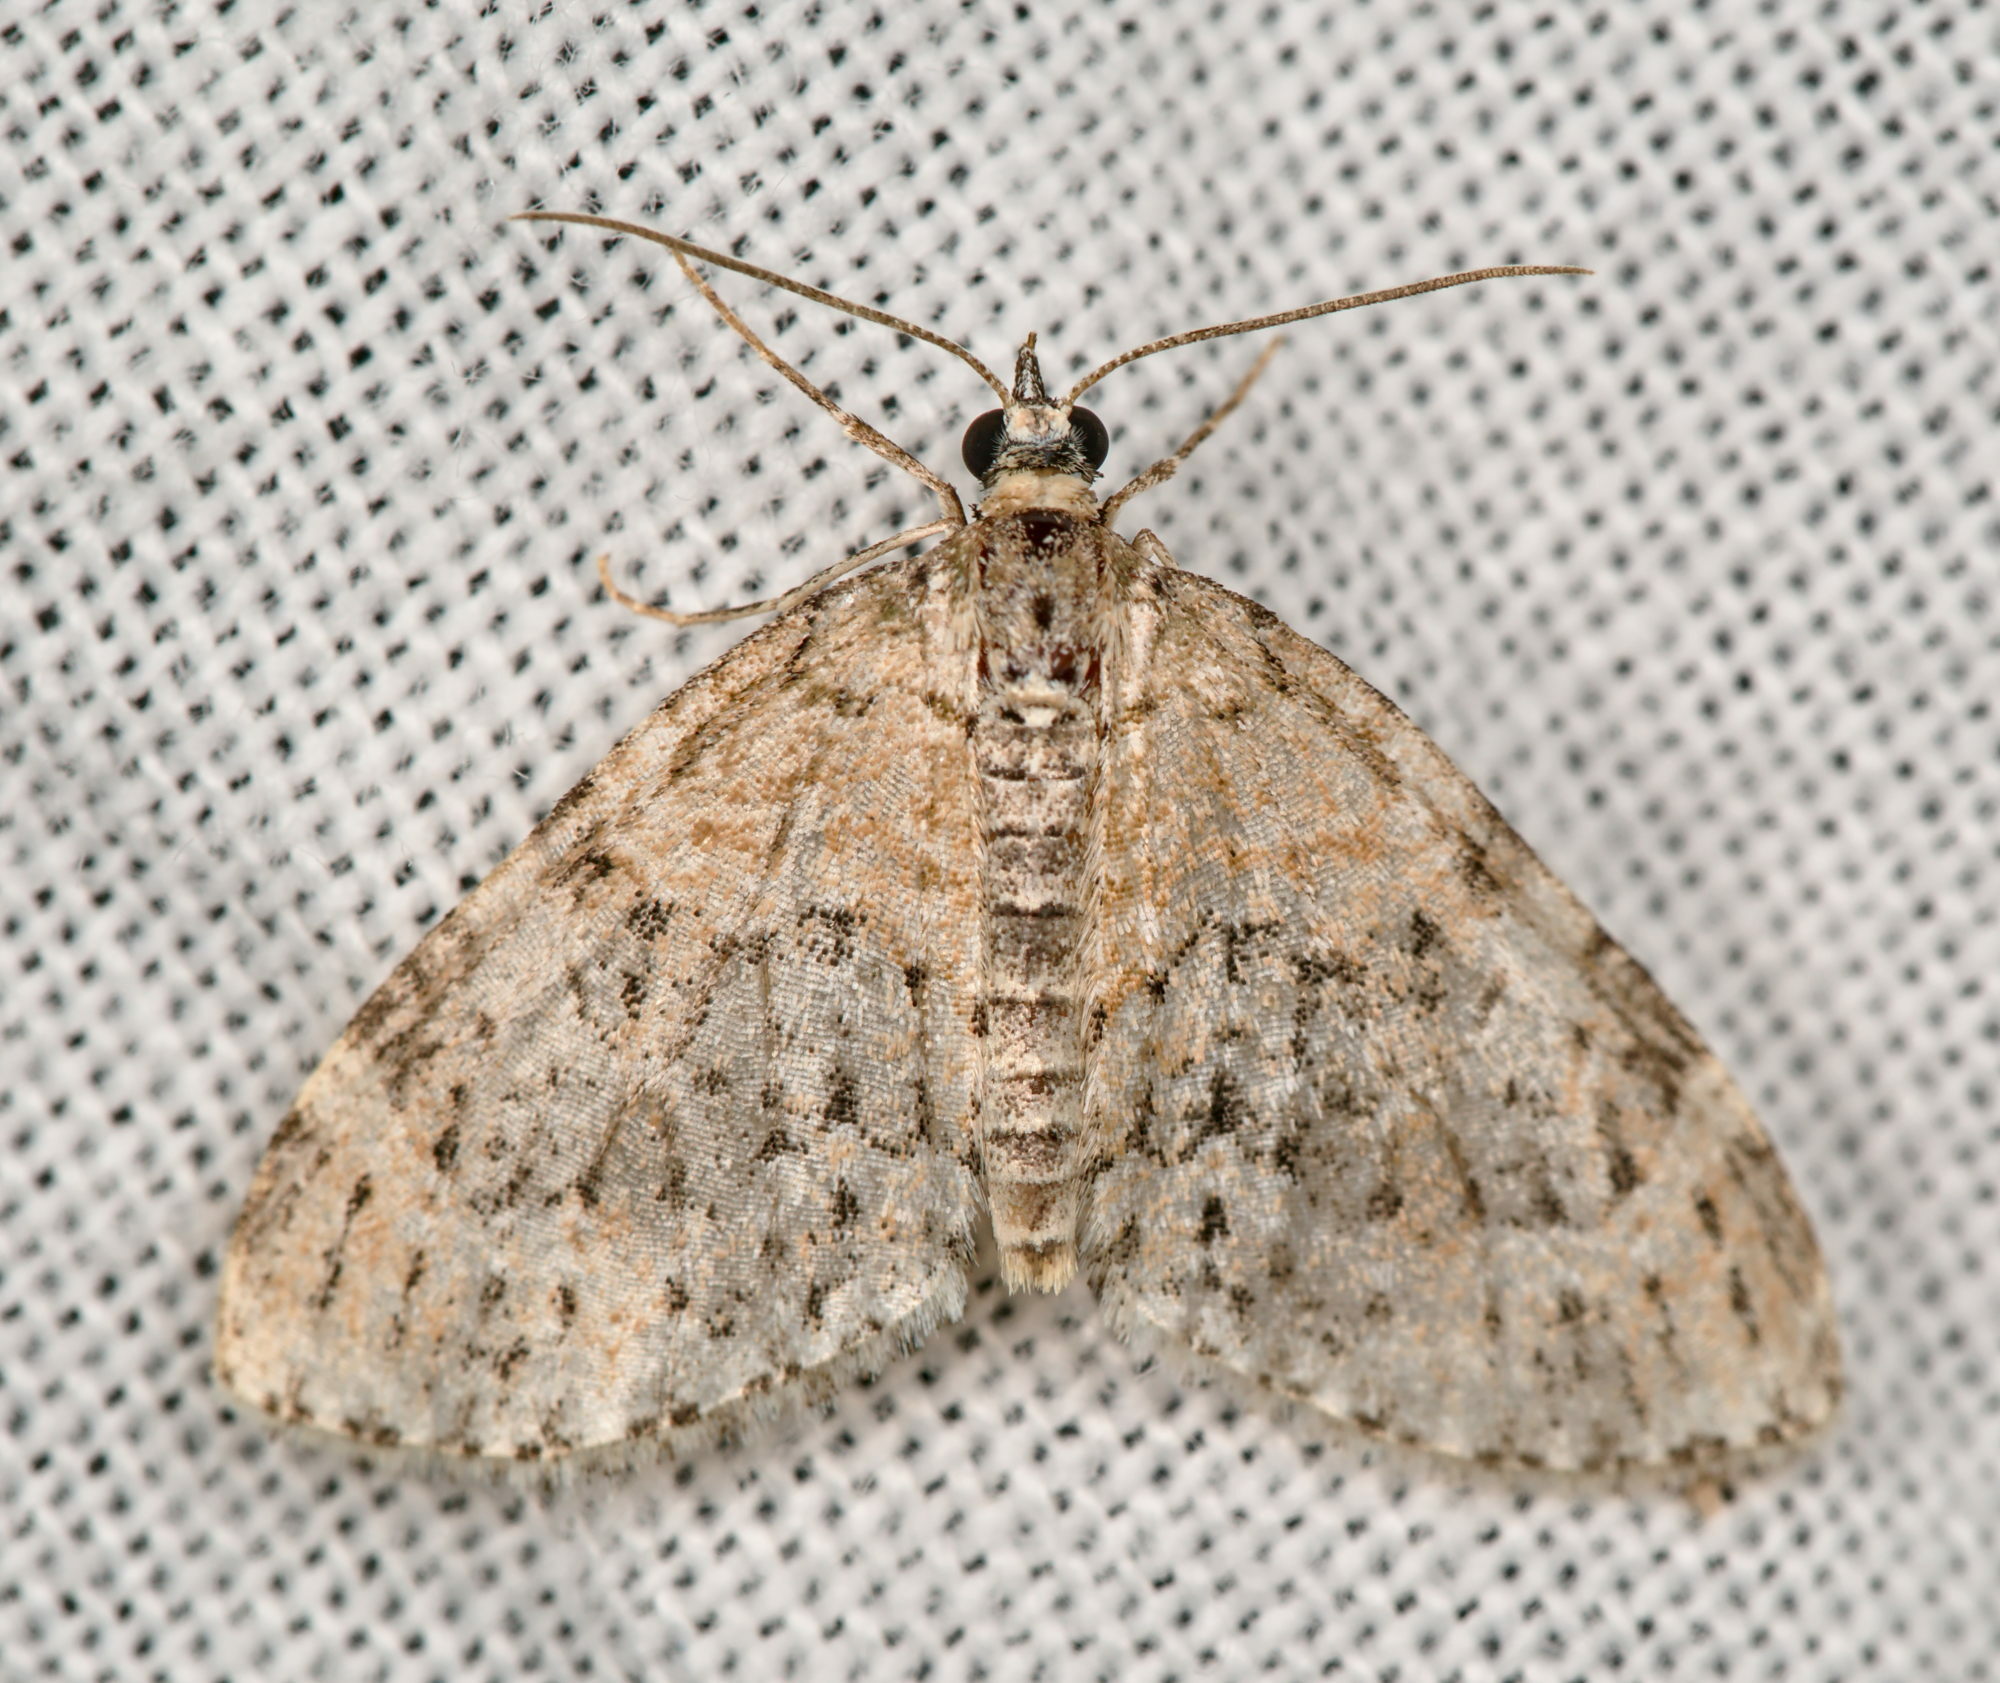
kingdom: Animalia
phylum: Arthropoda
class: Insecta
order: Lepidoptera
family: Geometridae
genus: Acasis
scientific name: Acasis viretata
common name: Yellow-barred brindle
